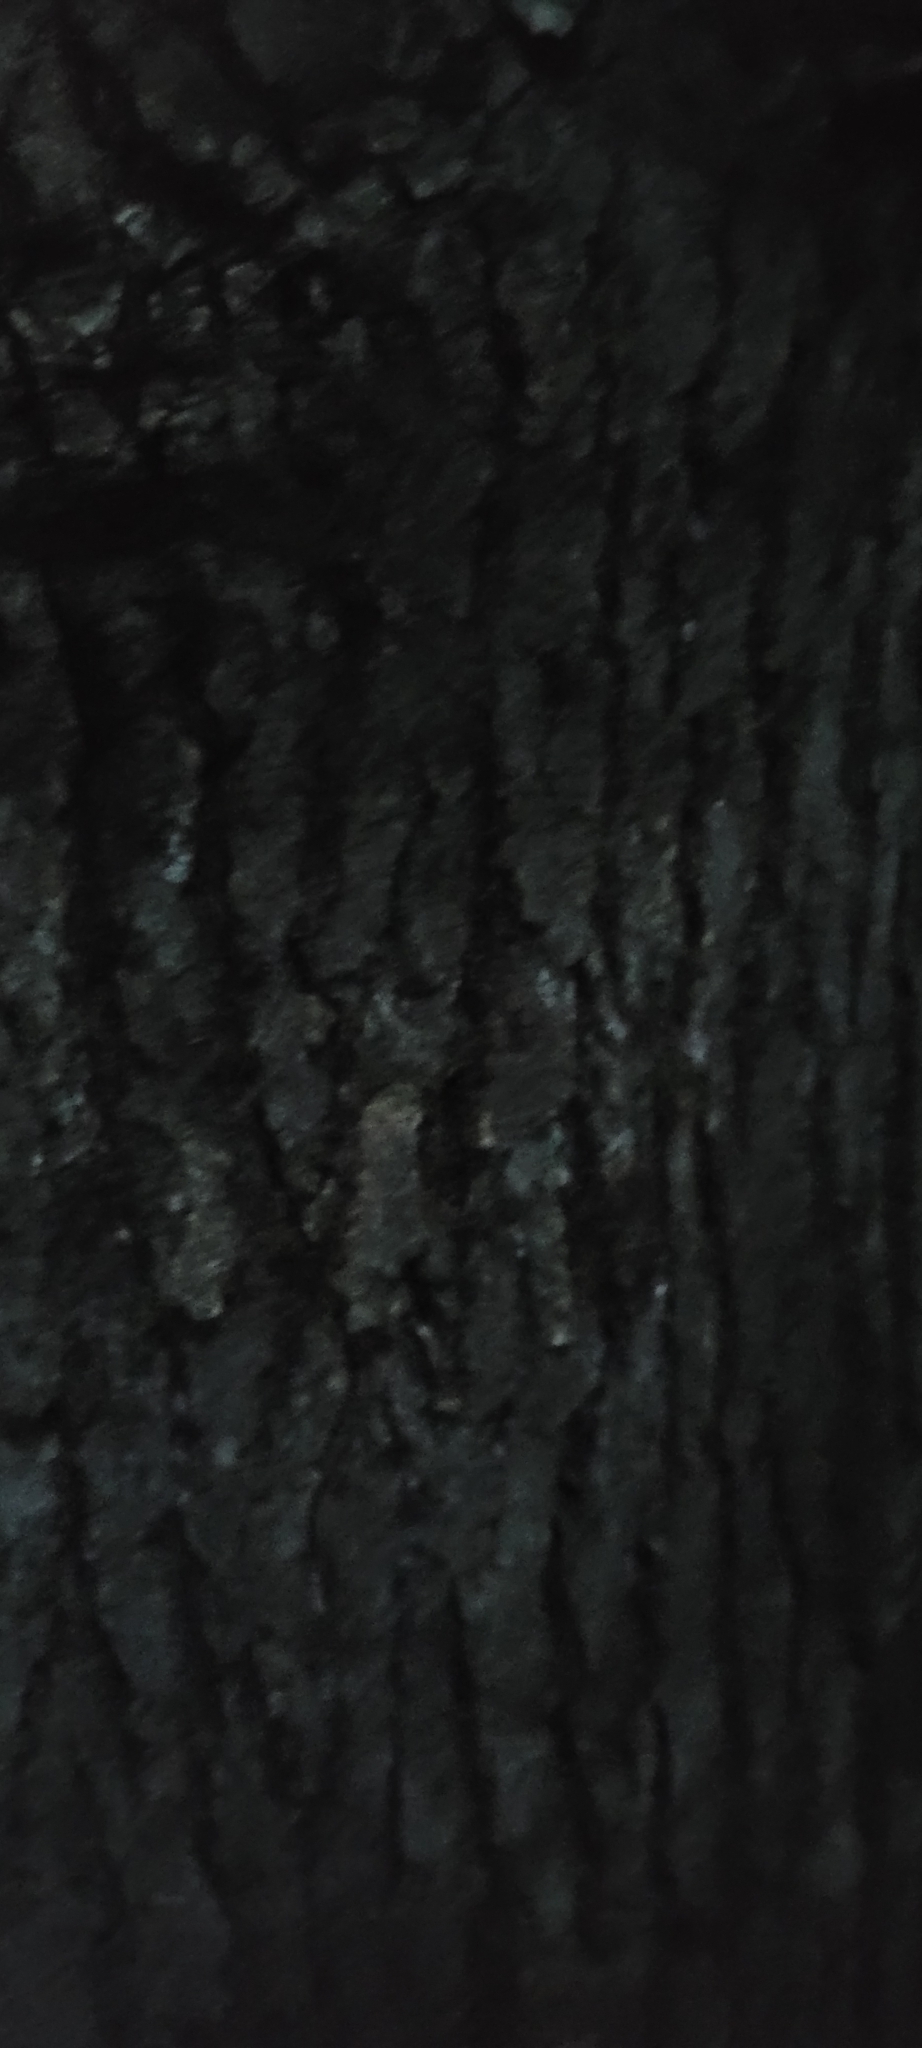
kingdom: Plantae
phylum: Tracheophyta
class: Magnoliopsida
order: Saxifragales
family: Altingiaceae
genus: Liquidambar
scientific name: Liquidambar styraciflua
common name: Sweet gum
